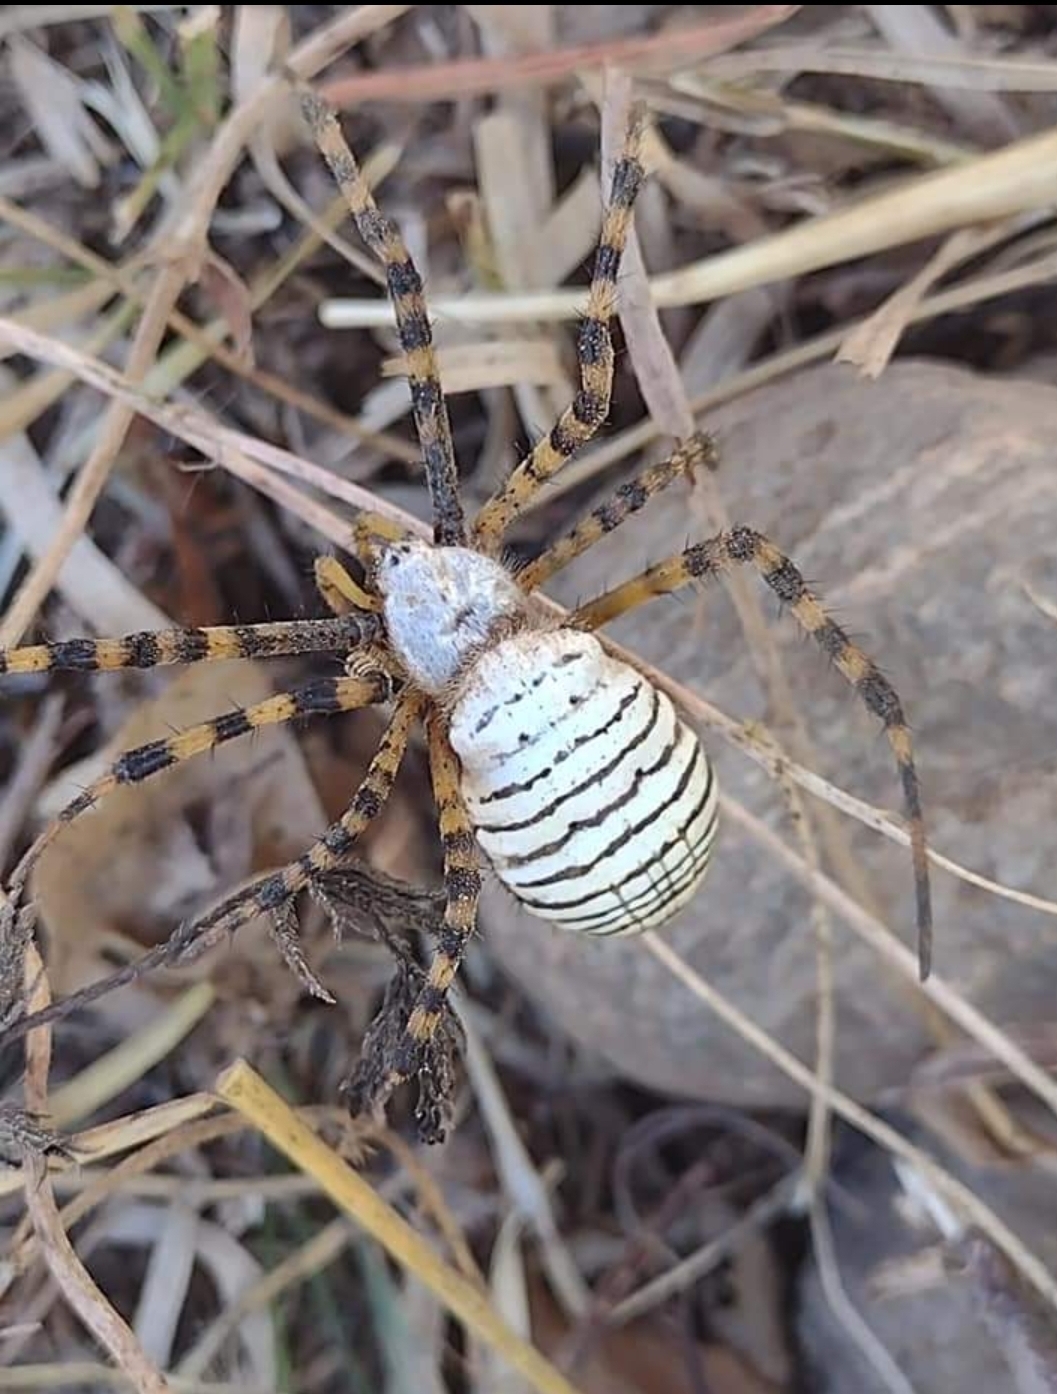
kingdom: Animalia
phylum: Arthropoda
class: Arachnida
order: Araneae
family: Araneidae
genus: Argiope
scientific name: Argiope trifasciata
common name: Banded garden spider
